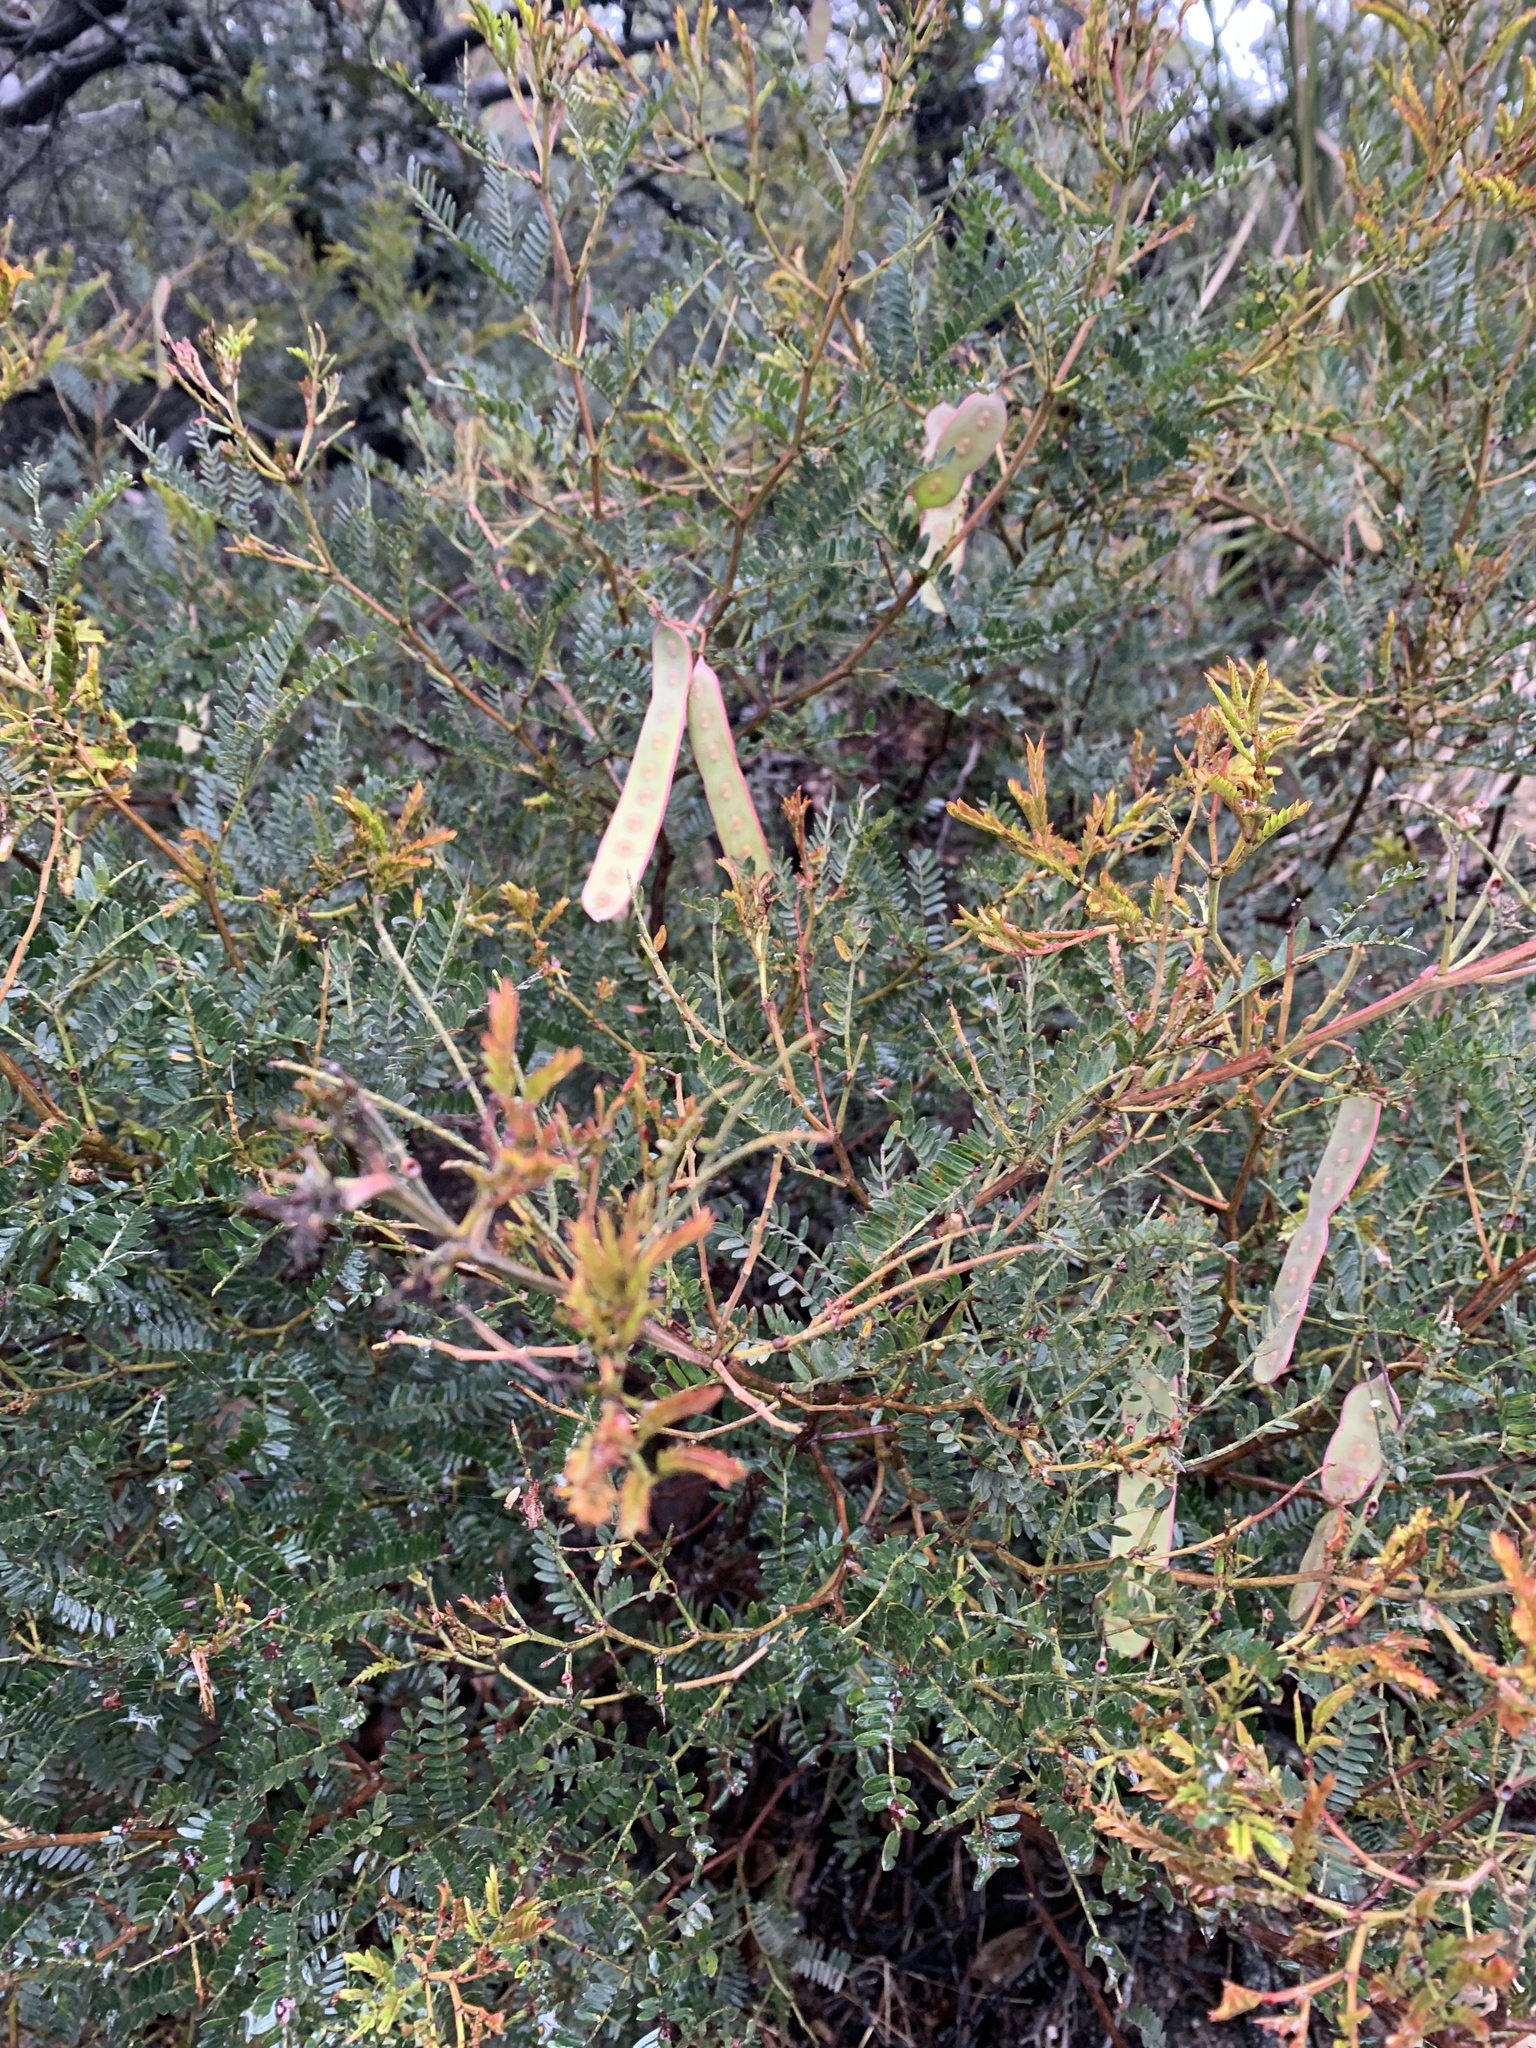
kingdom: Plantae
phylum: Tracheophyta
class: Magnoliopsida
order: Fabales
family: Fabaceae
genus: Acacia
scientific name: Acacia terminalis
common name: Cedar wattle
